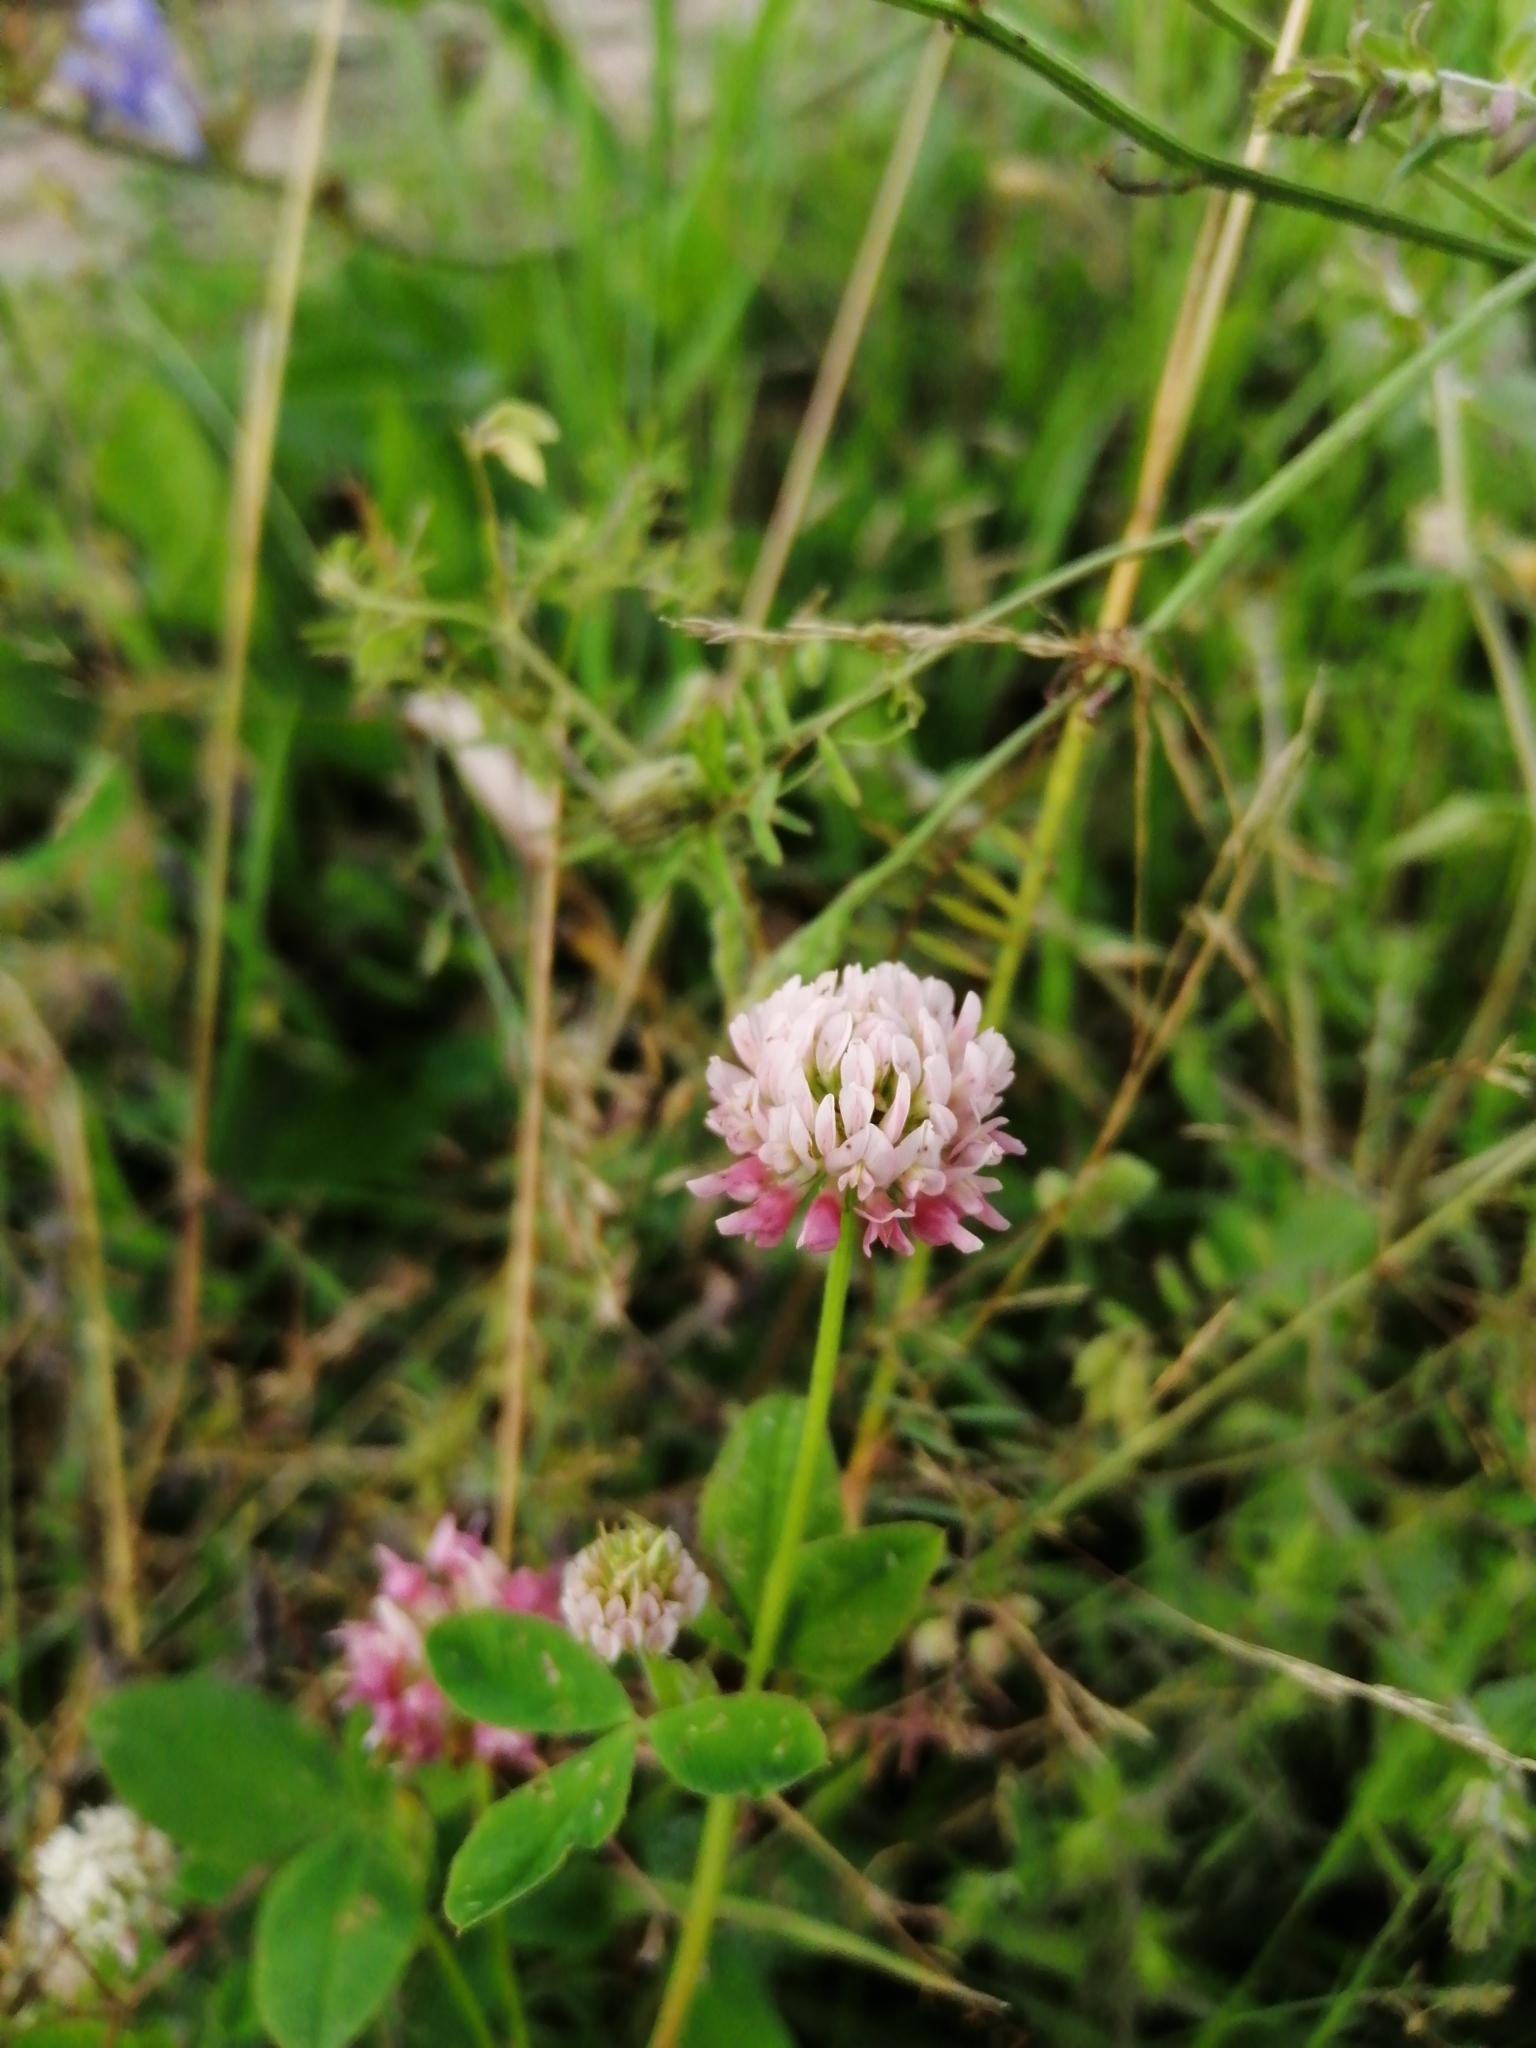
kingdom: Plantae
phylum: Tracheophyta
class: Magnoliopsida
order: Fabales
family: Fabaceae
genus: Trifolium
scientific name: Trifolium hybridum
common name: Alsike clover
